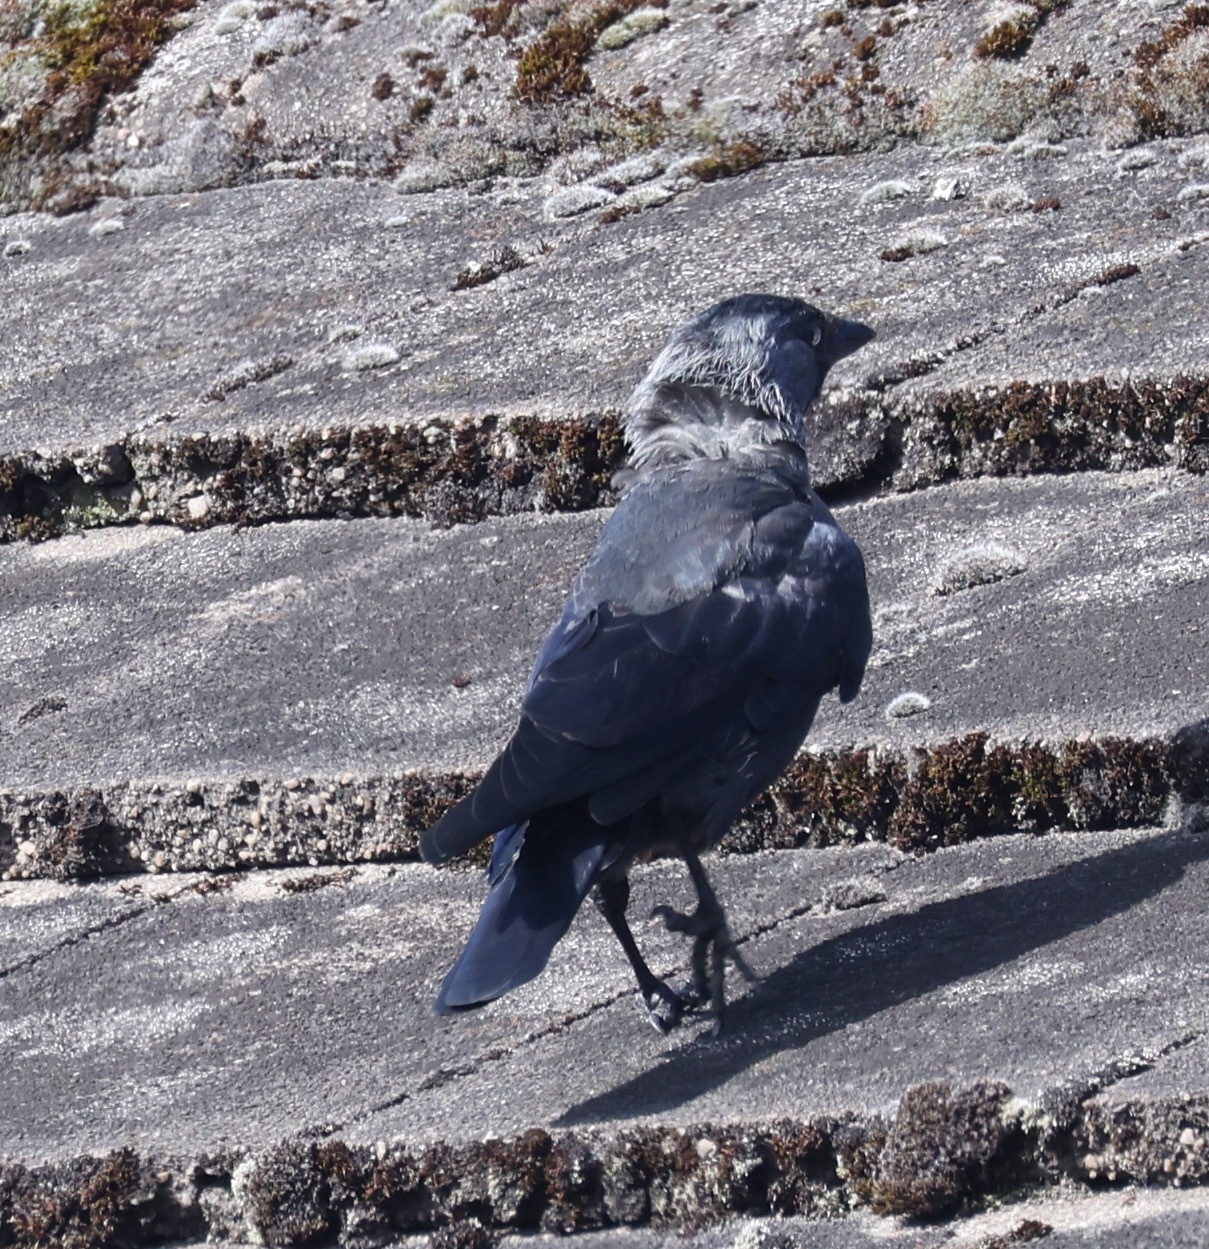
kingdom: Animalia
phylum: Chordata
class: Aves
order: Passeriformes
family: Corvidae
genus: Coloeus
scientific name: Coloeus monedula
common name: Western jackdaw
